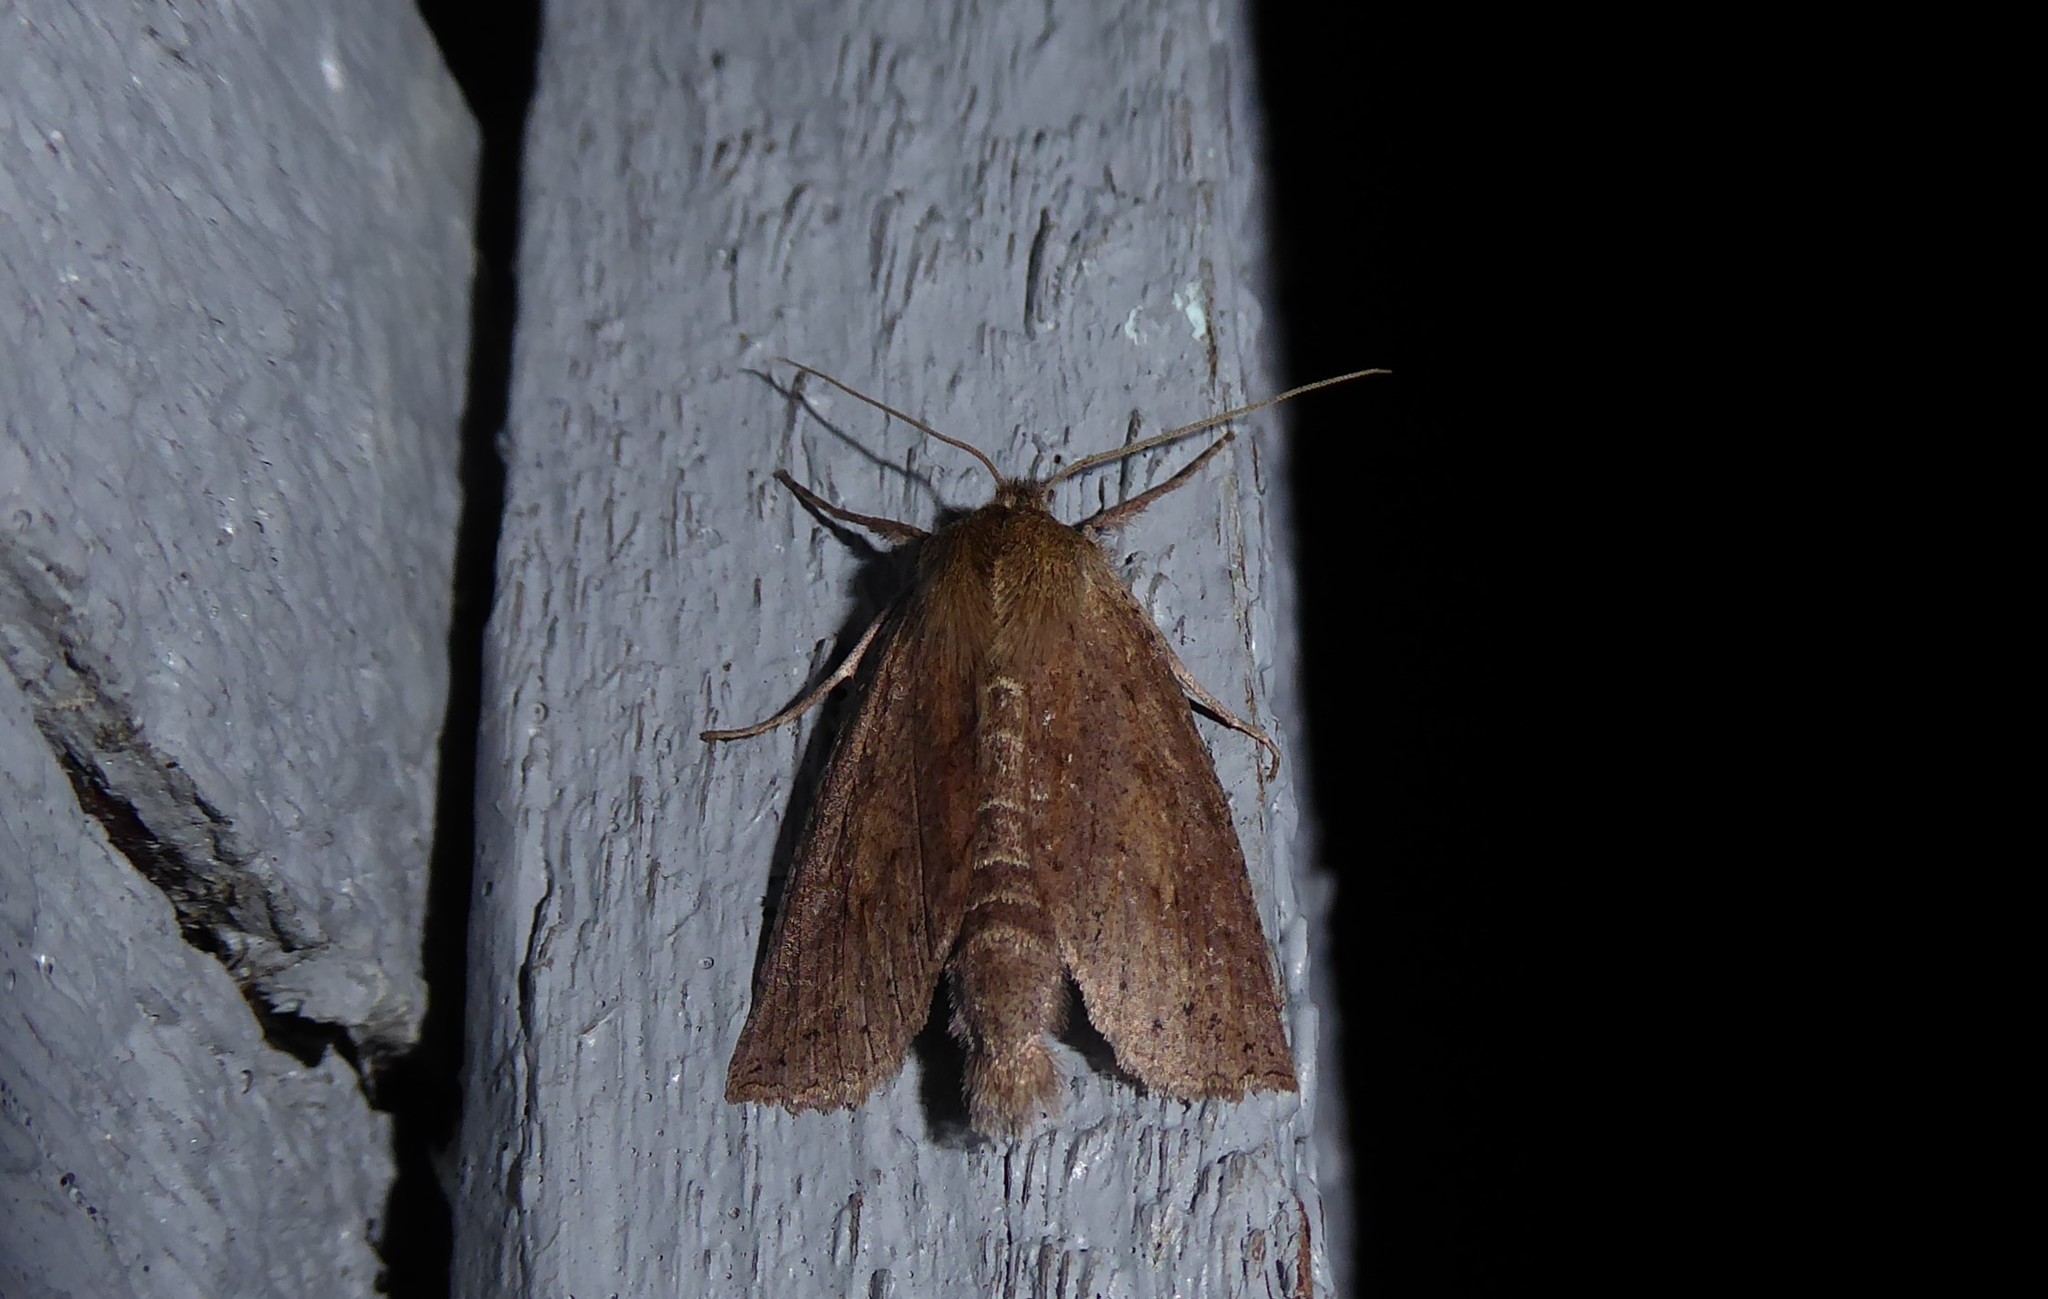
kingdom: Animalia
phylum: Arthropoda
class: Insecta
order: Lepidoptera
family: Geometridae
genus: Declana
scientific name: Declana leptomera
